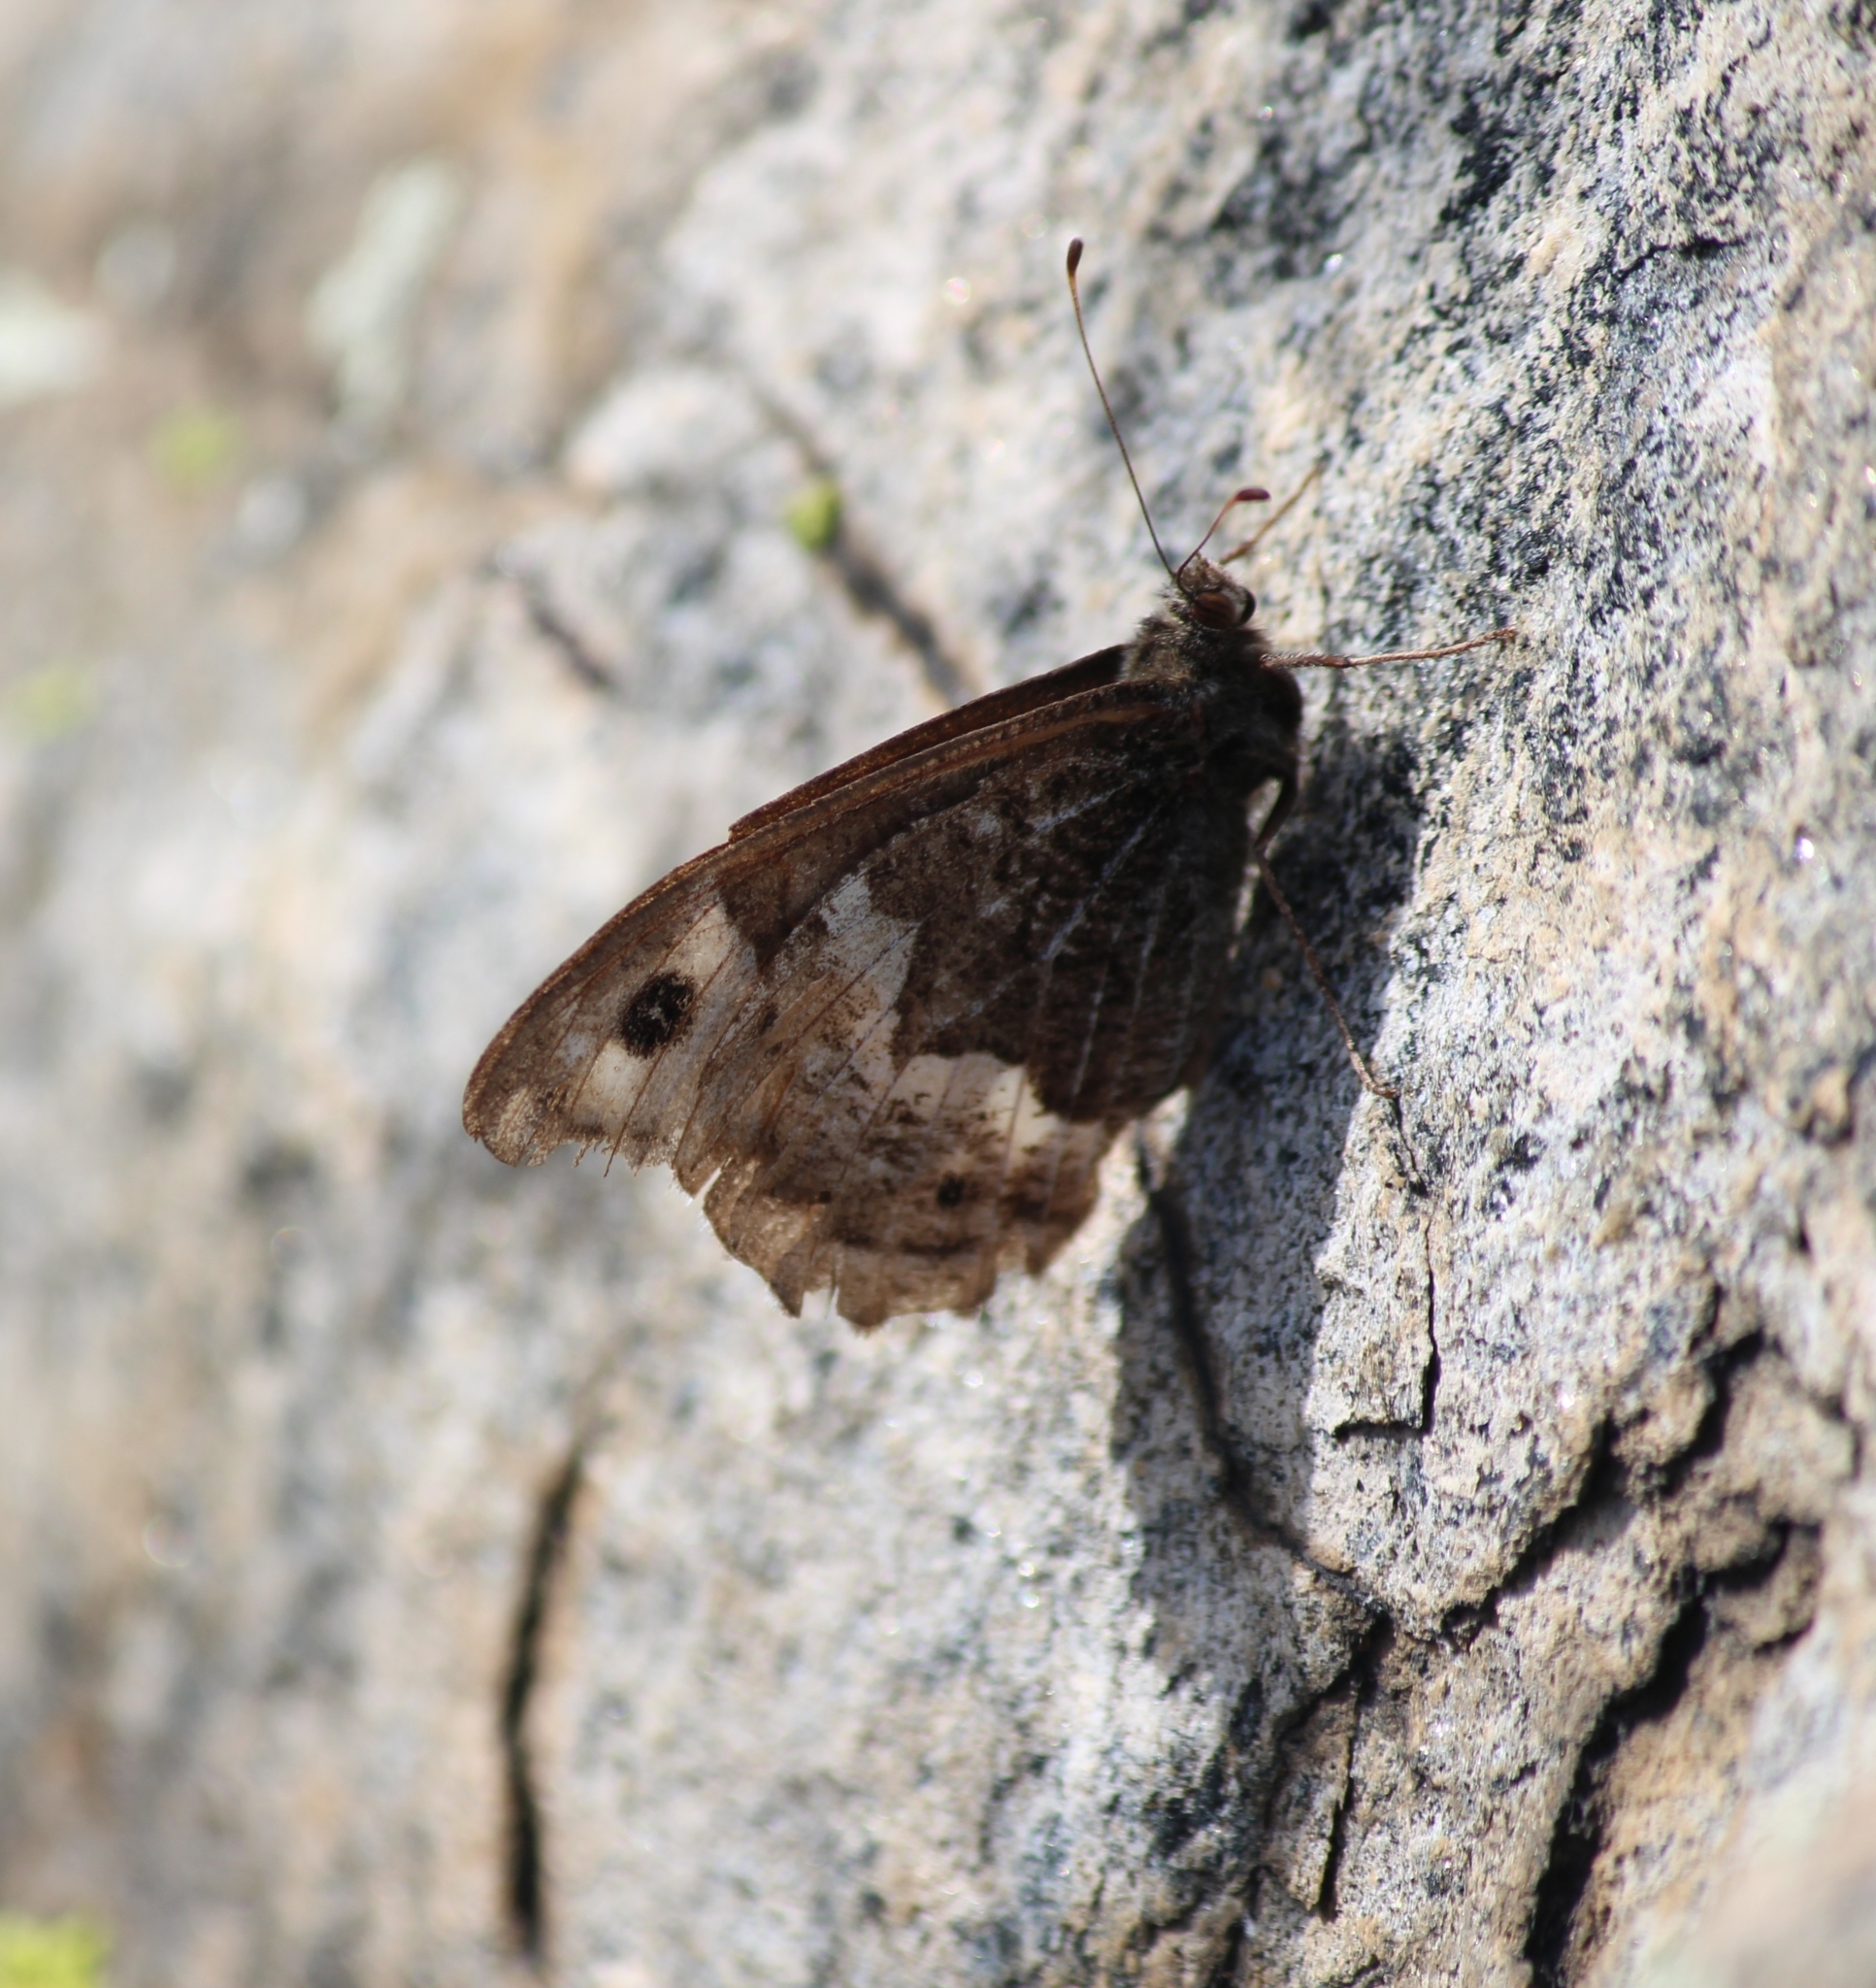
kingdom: Animalia
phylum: Arthropoda
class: Insecta
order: Lepidoptera
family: Nymphalidae
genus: Hipparchia
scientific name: Hipparchia autonoe
